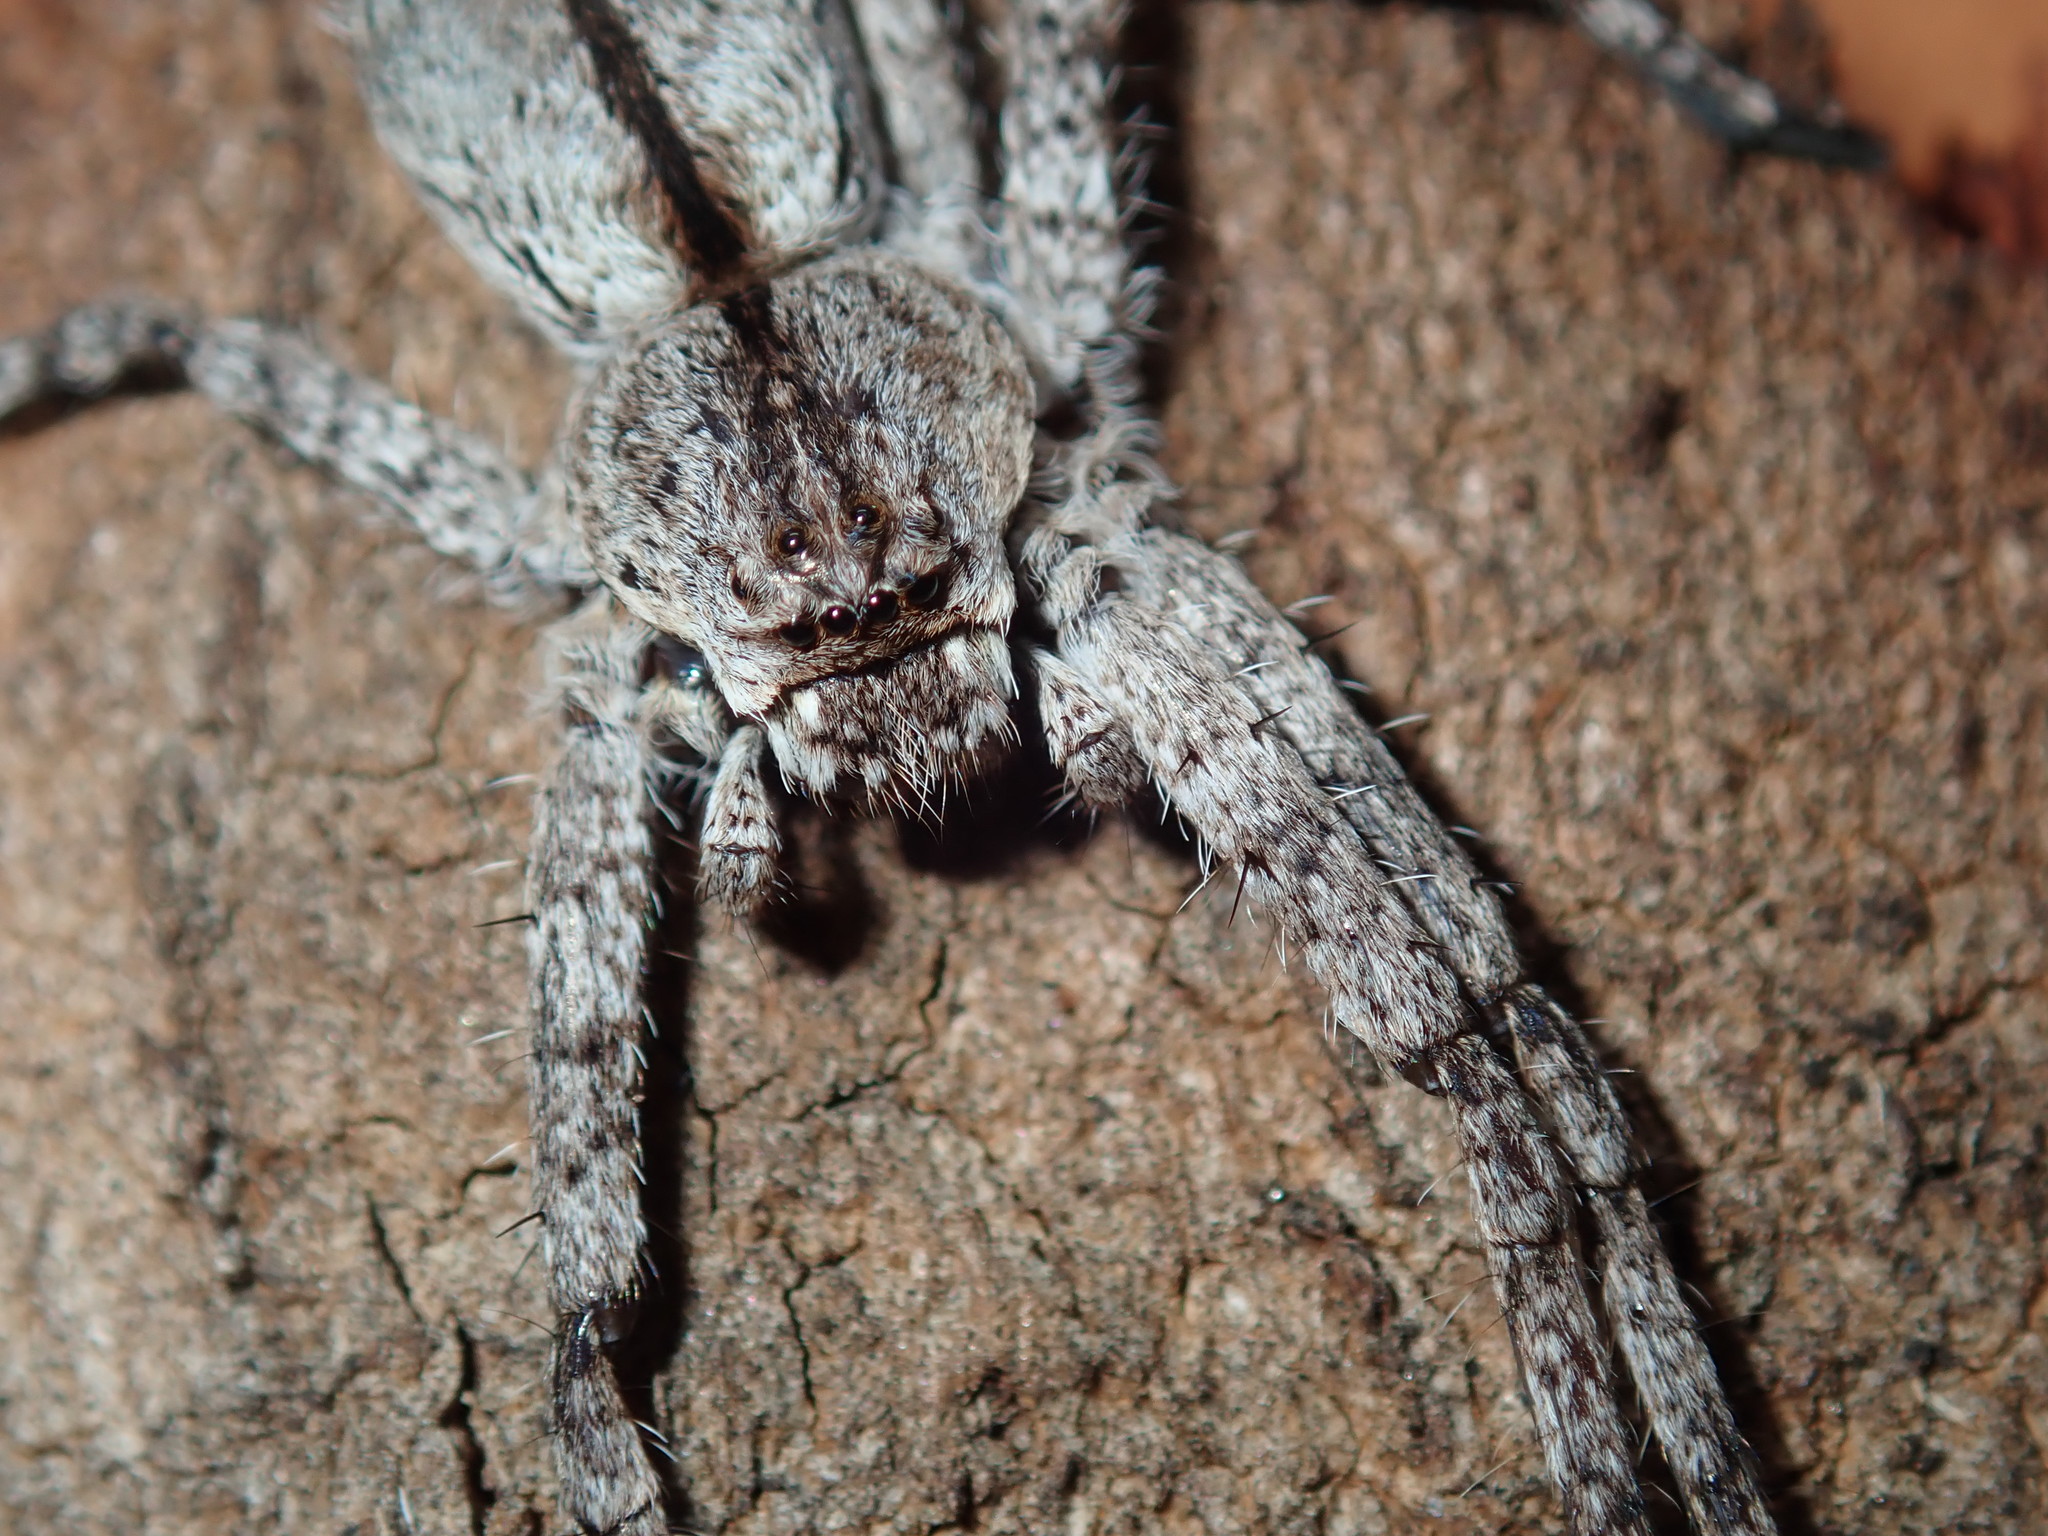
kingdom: Animalia
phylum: Arthropoda
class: Arachnida
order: Araneae
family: Sparassidae
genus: Pediana
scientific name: Pediana regina
